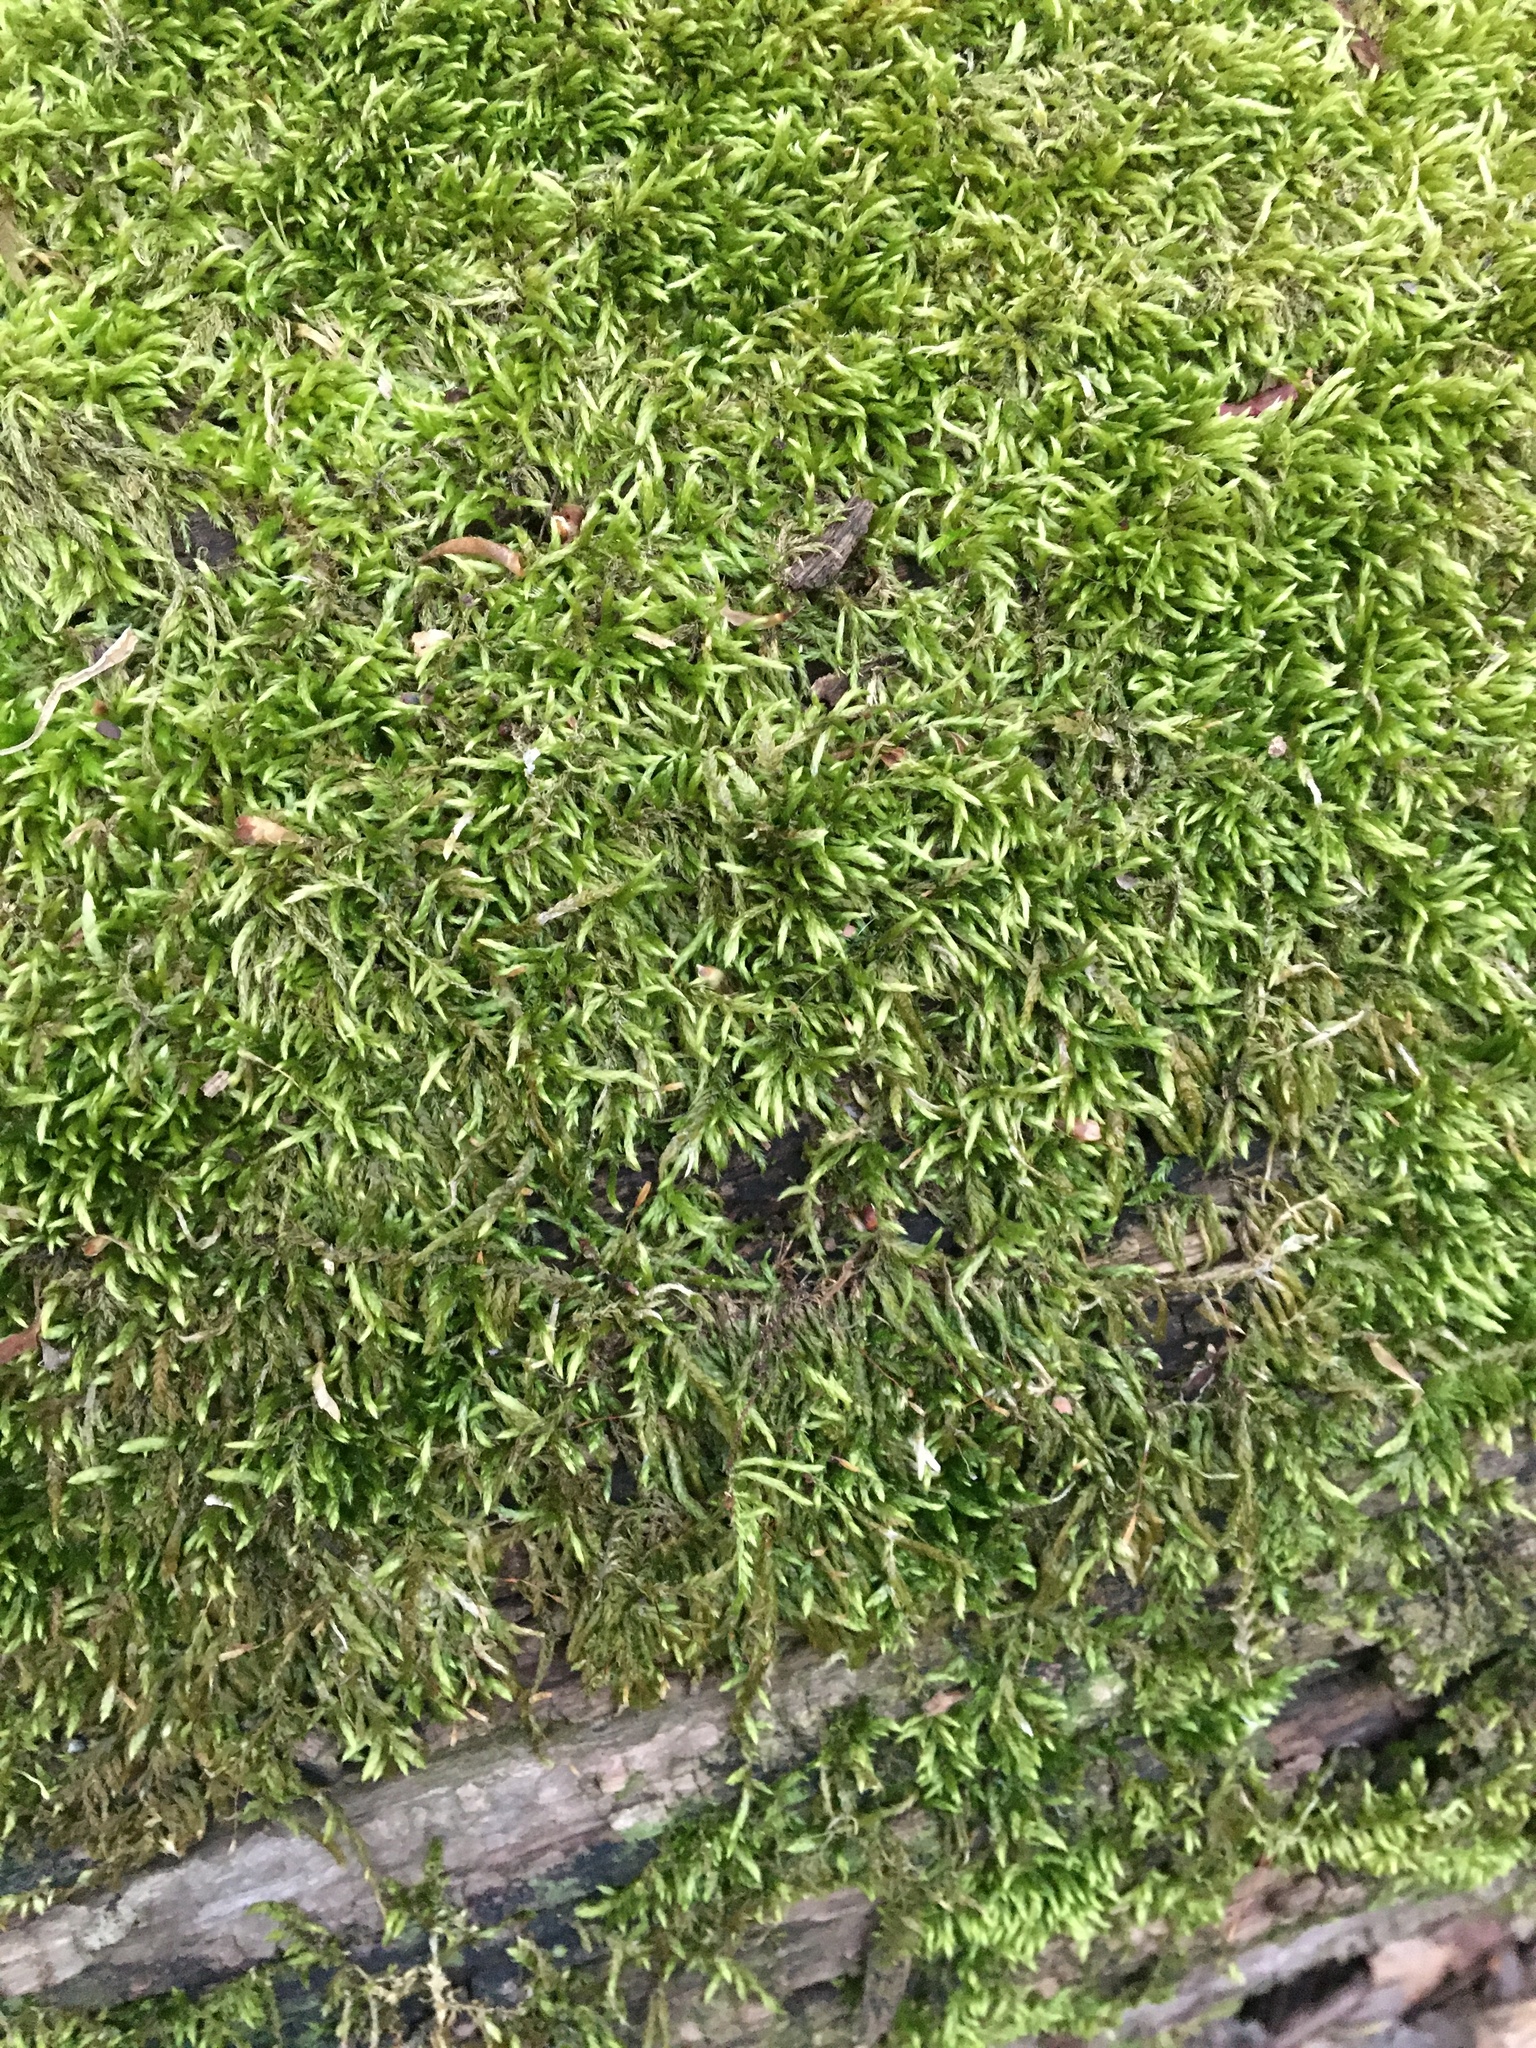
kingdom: Plantae
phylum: Bryophyta
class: Bryopsida
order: Hypnales
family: Entodontaceae
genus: Entodon
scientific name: Entodon seductrix
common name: Round-stemmed entodon moss
